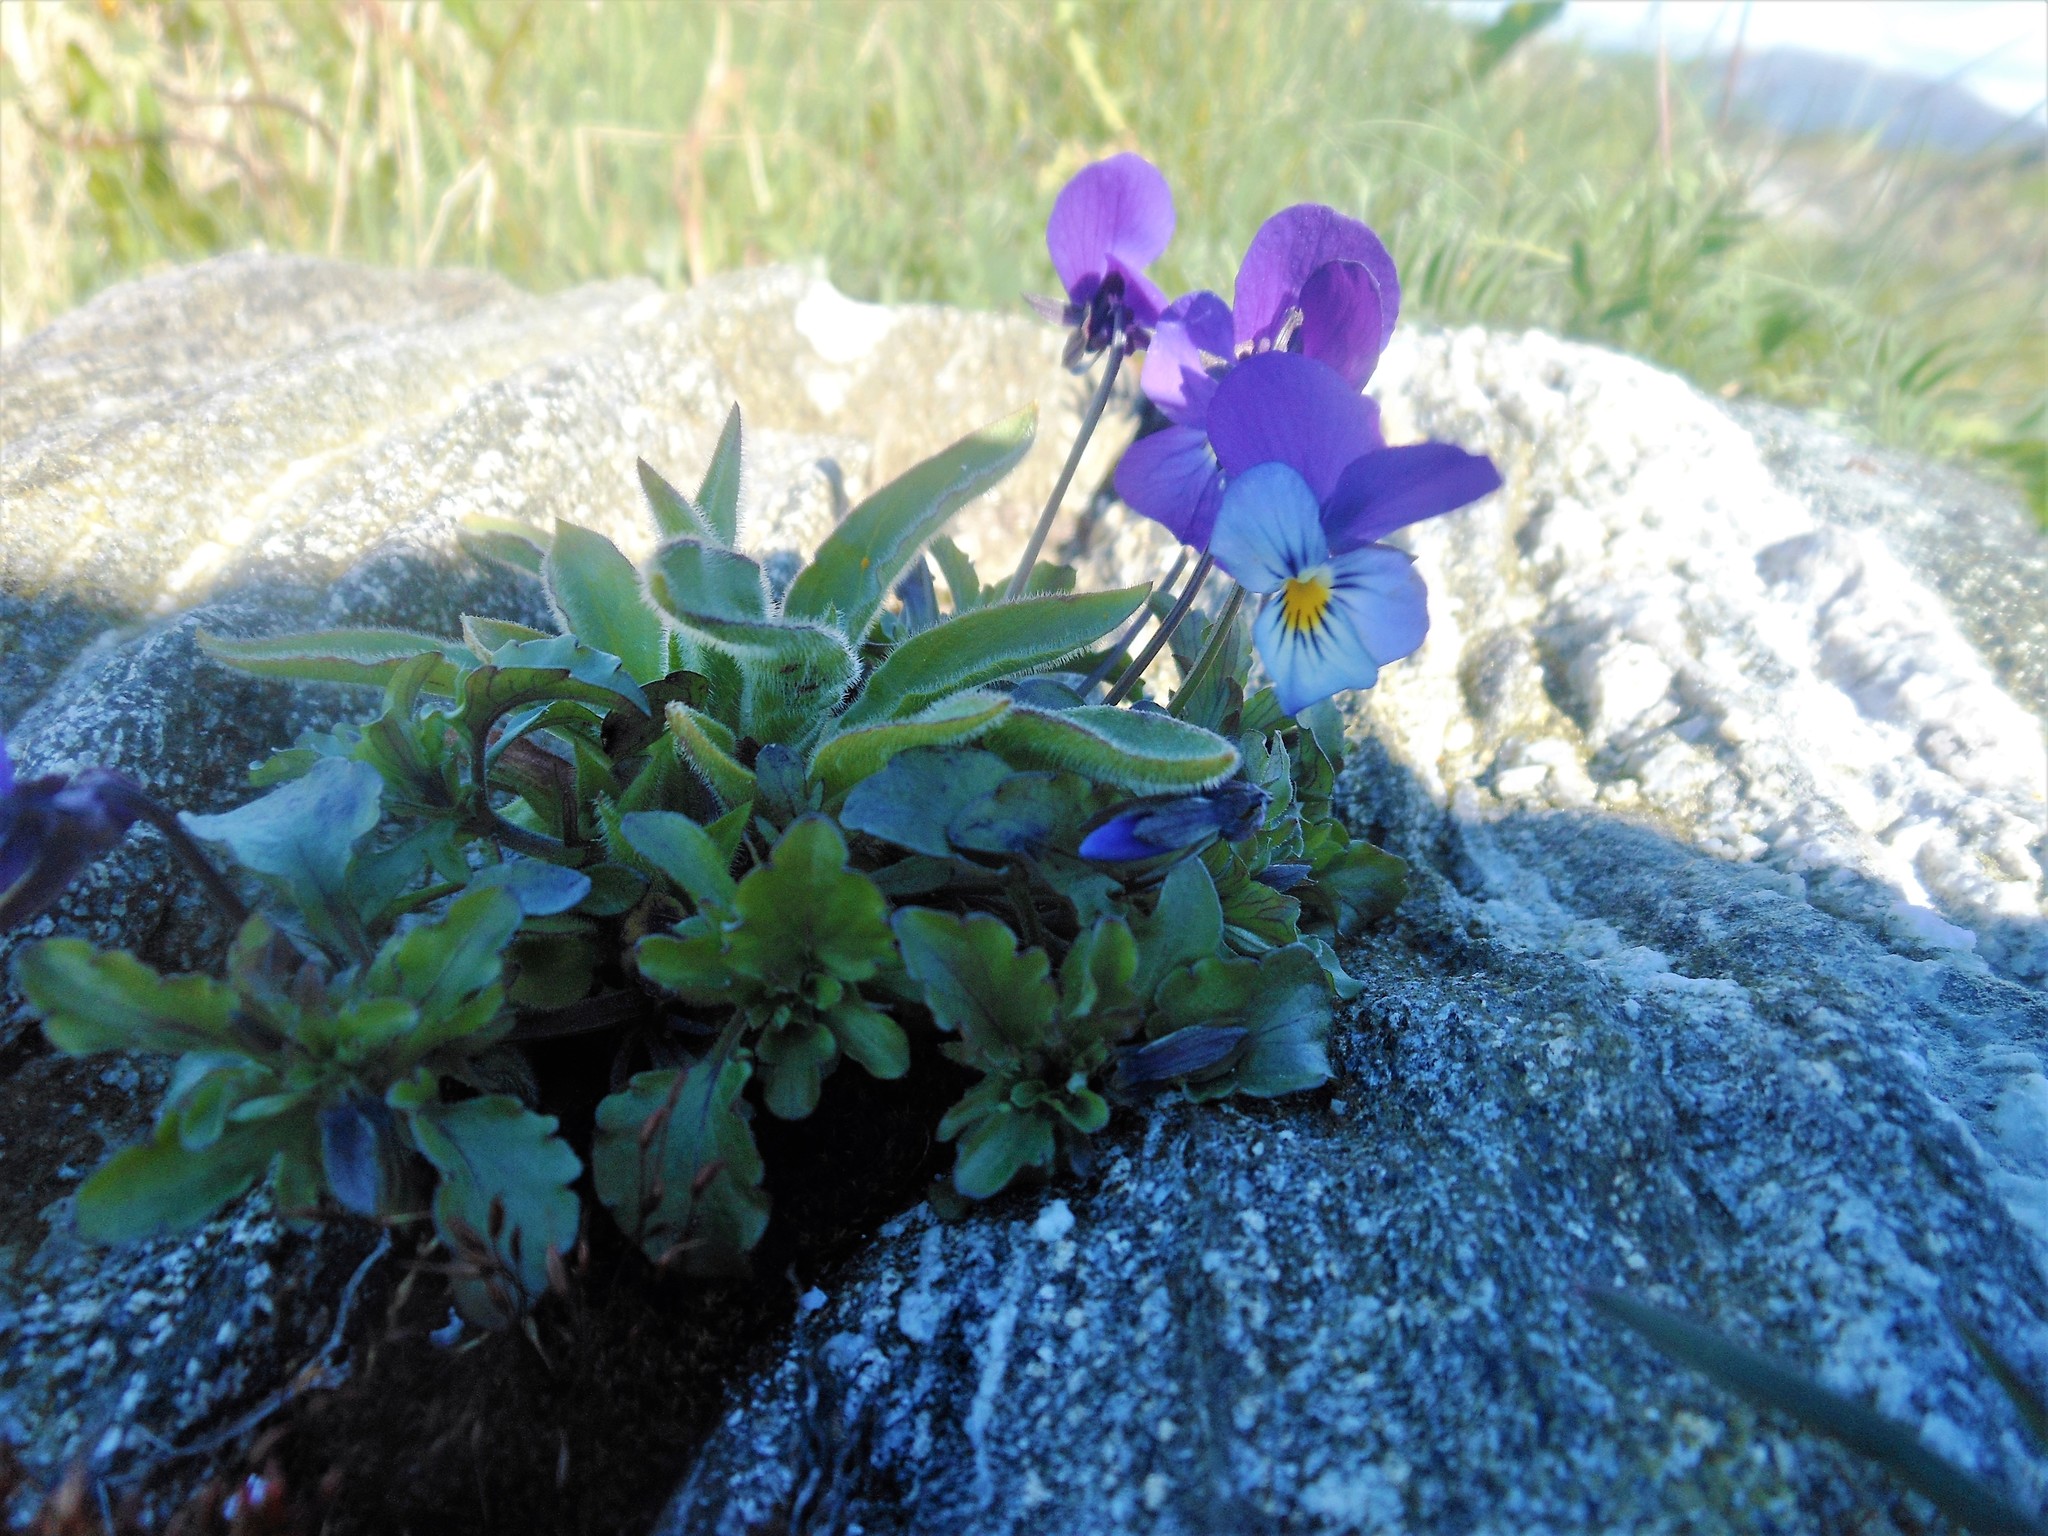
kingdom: Plantae
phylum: Tracheophyta
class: Magnoliopsida
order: Malpighiales
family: Violaceae
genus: Viola
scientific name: Viola tricolor
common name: Pansy
